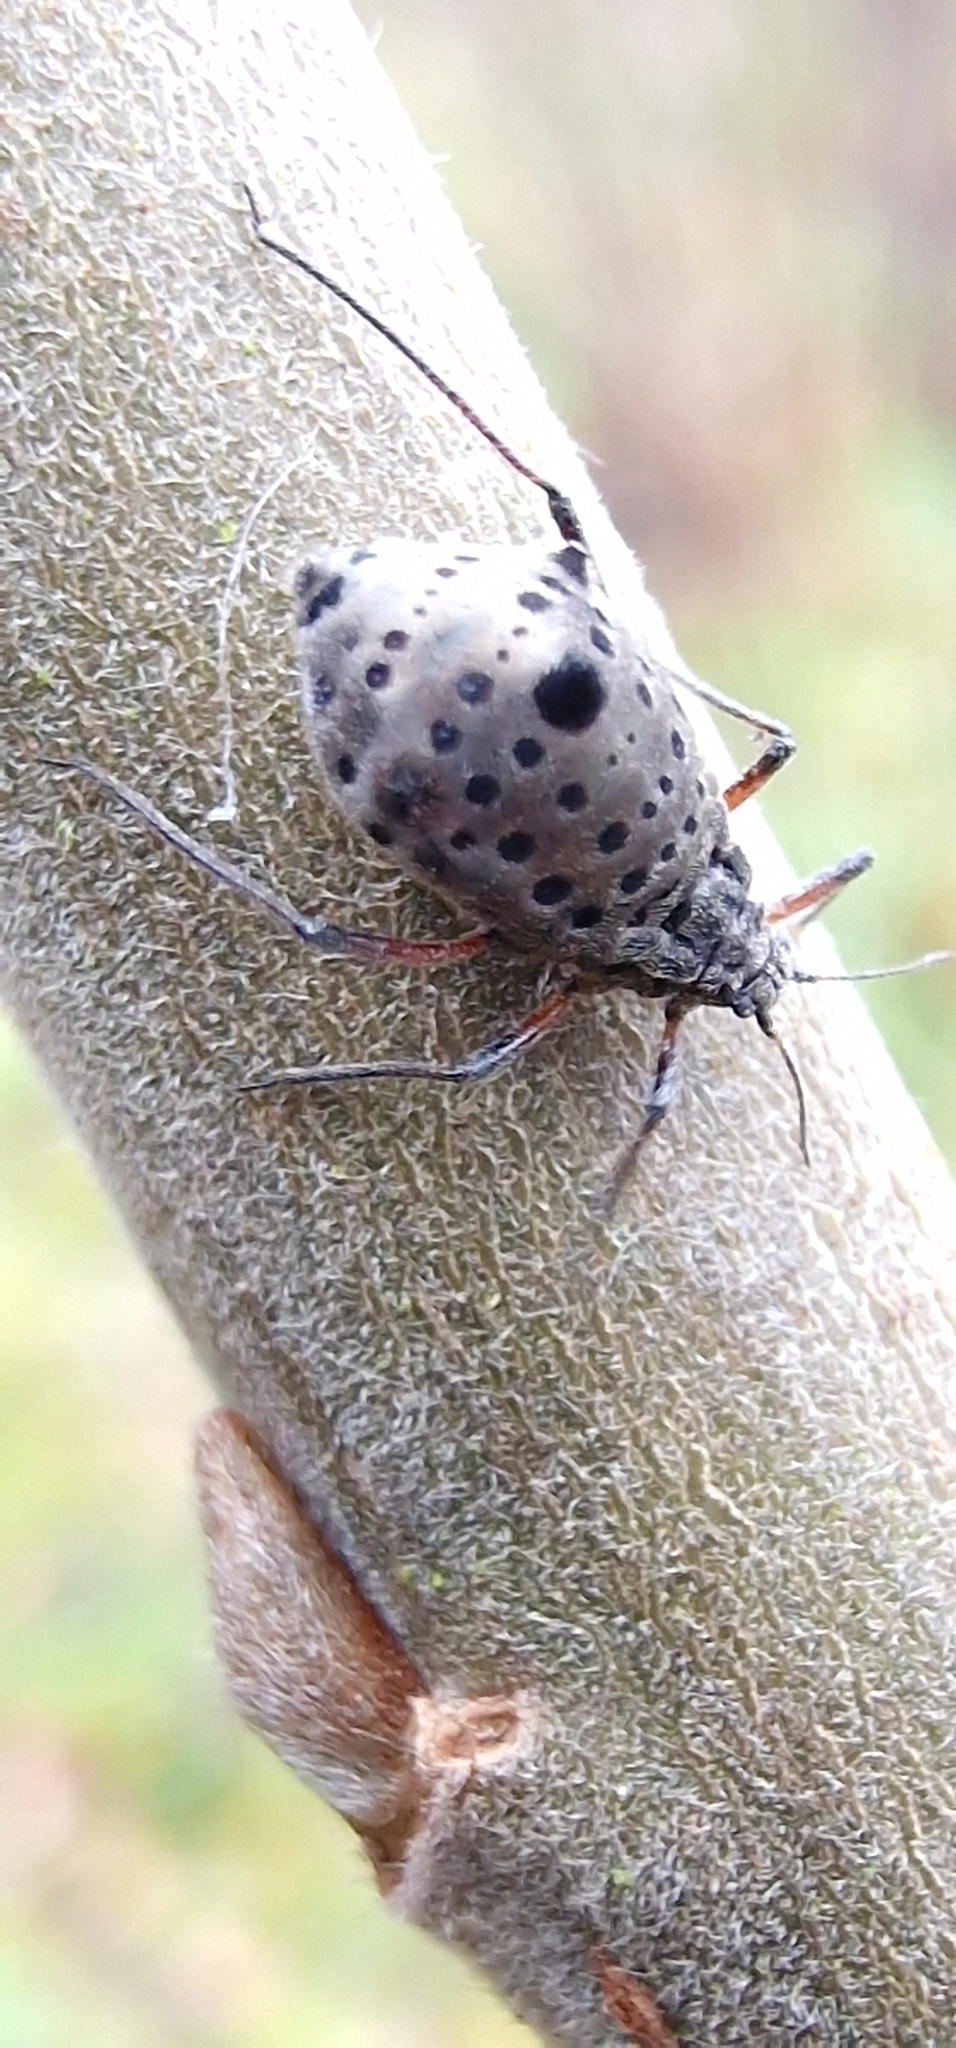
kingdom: Animalia
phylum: Arthropoda
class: Insecta
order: Hemiptera
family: Aphididae
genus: Tuberolachnus
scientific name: Tuberolachnus salignus
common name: Giant willow aphid
